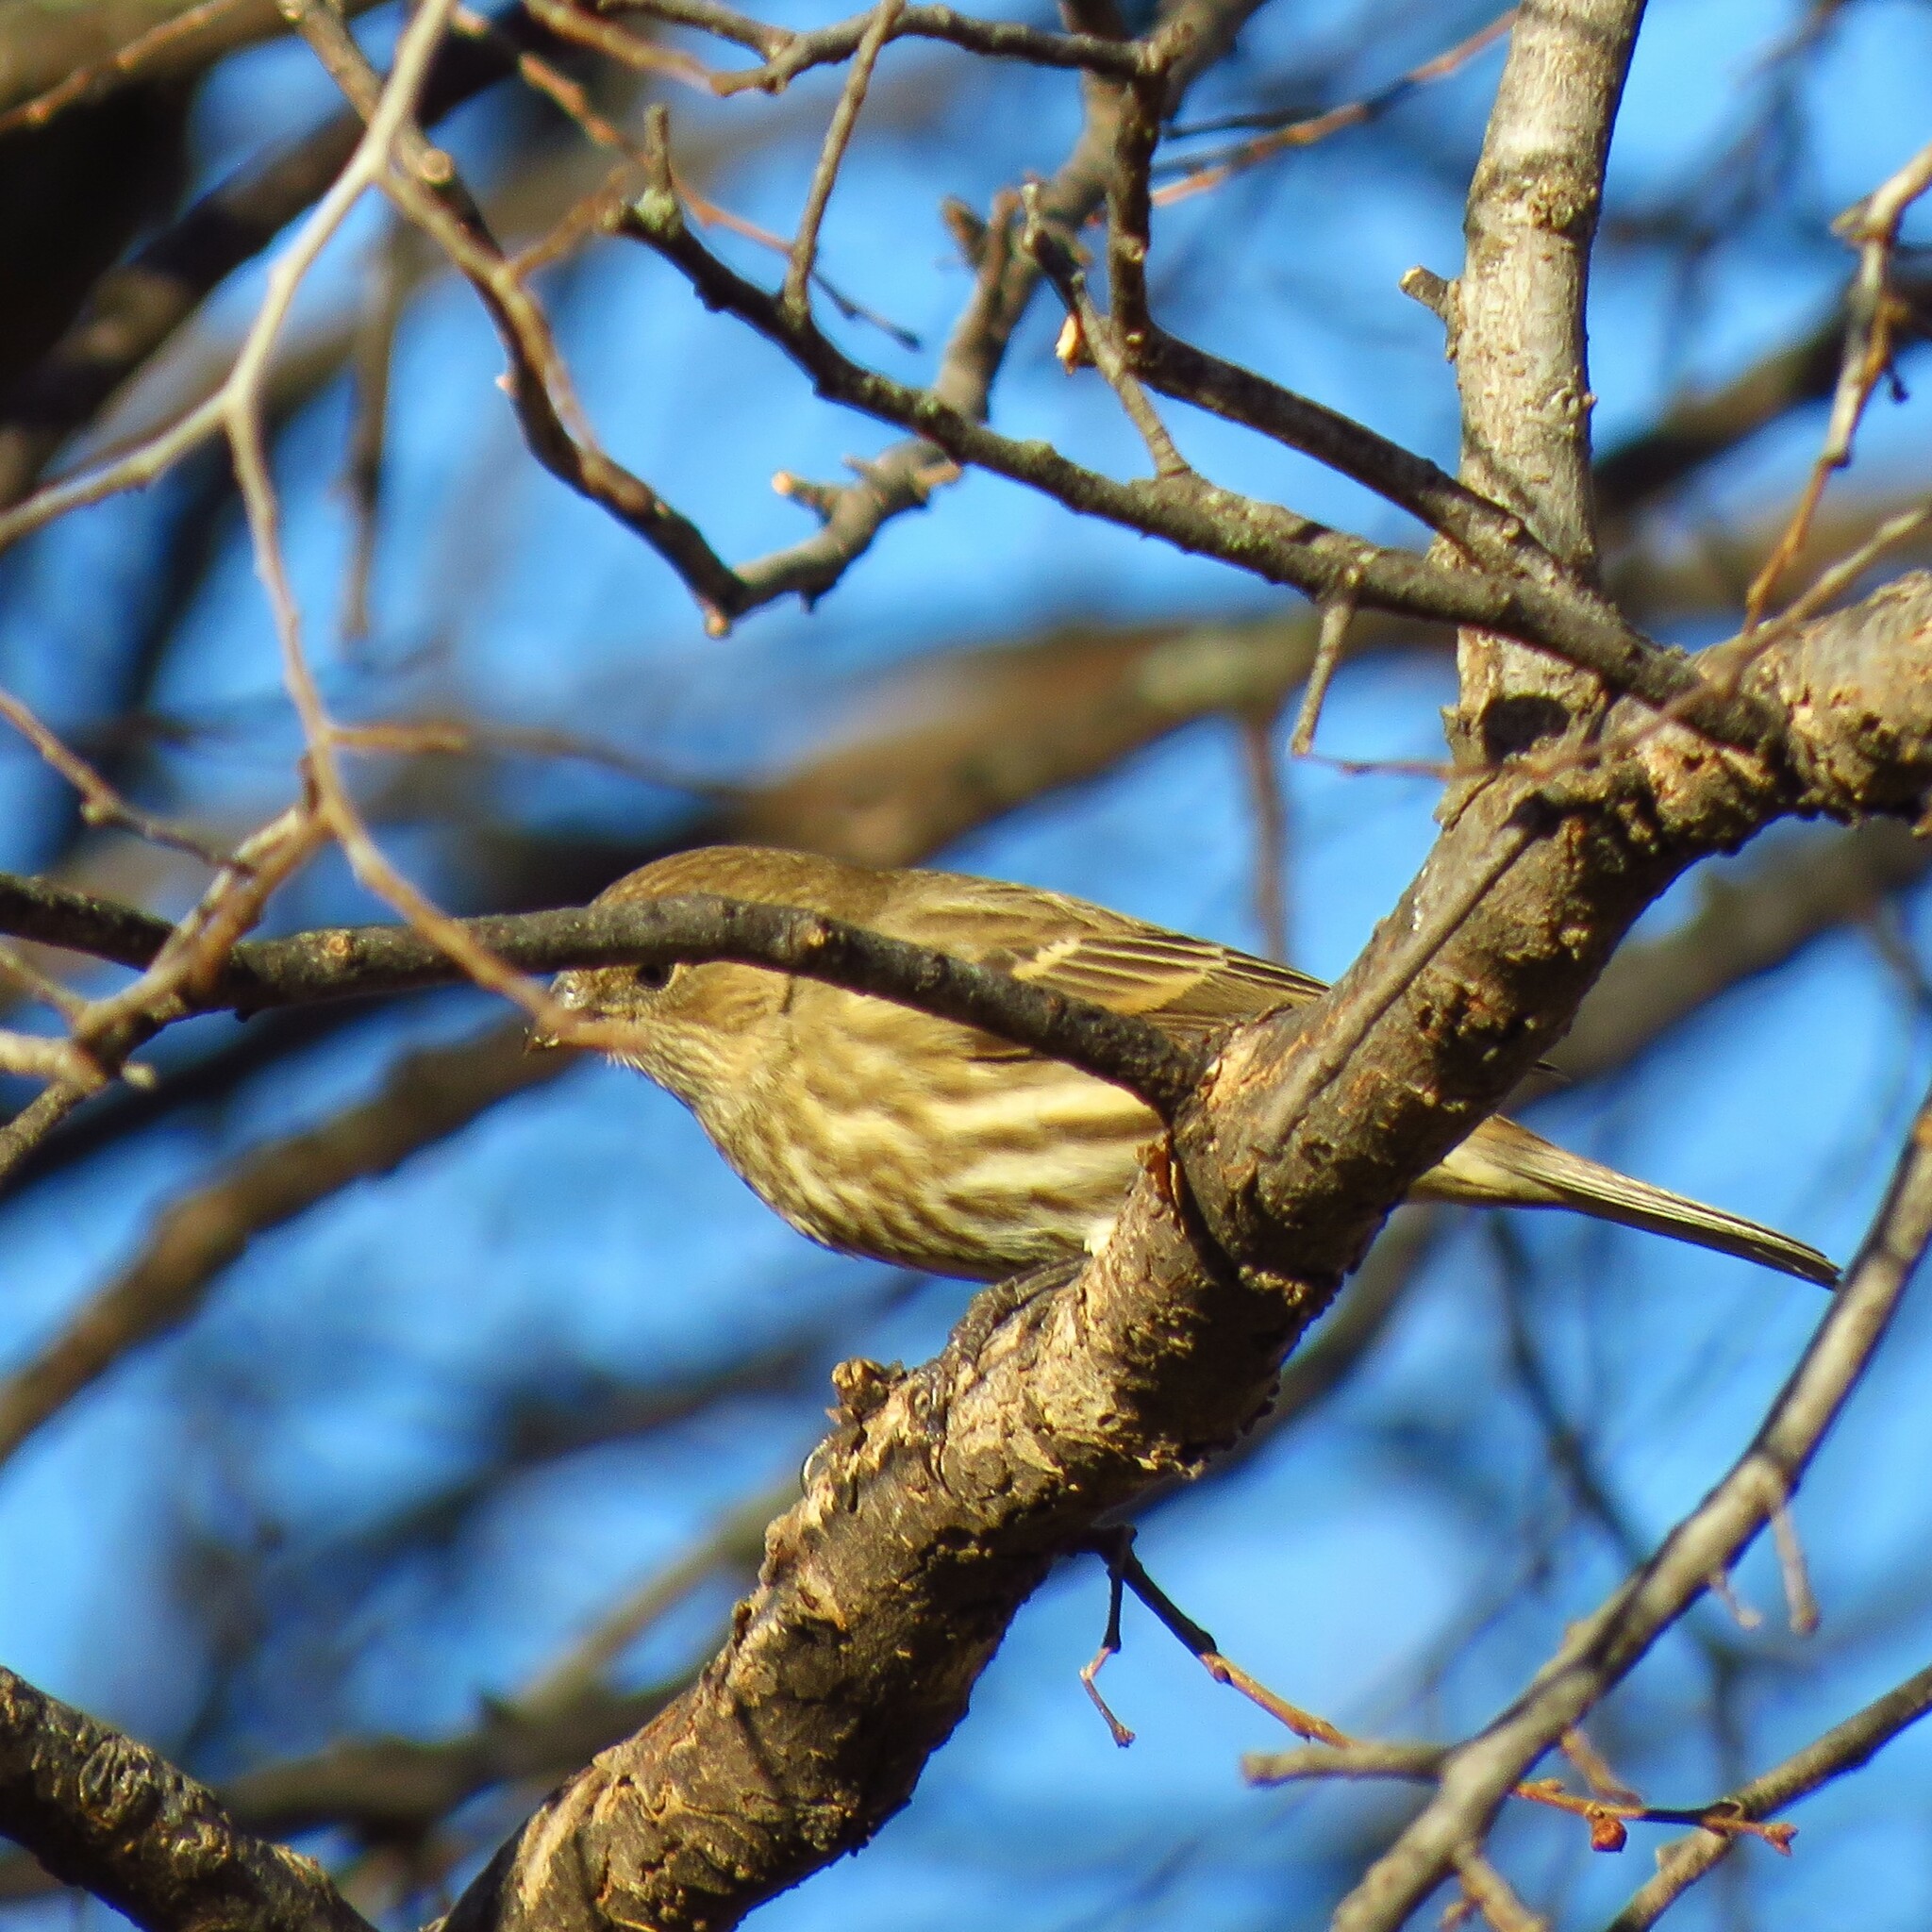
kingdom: Animalia
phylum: Chordata
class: Aves
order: Passeriformes
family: Fringillidae
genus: Haemorhous
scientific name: Haemorhous mexicanus
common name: House finch
